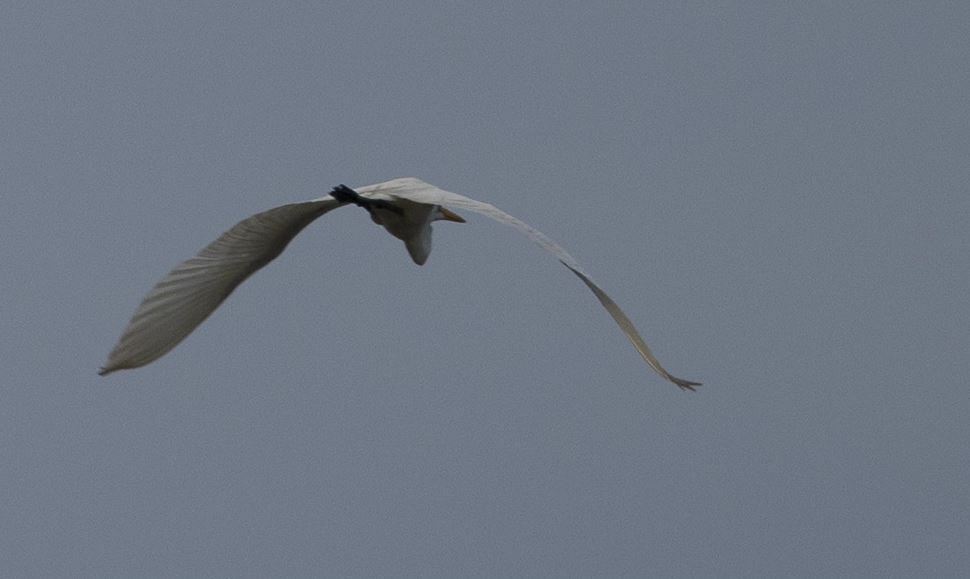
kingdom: Animalia
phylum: Chordata
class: Aves
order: Pelecaniformes
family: Ardeidae
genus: Ardea
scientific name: Ardea alba
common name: Great egret
